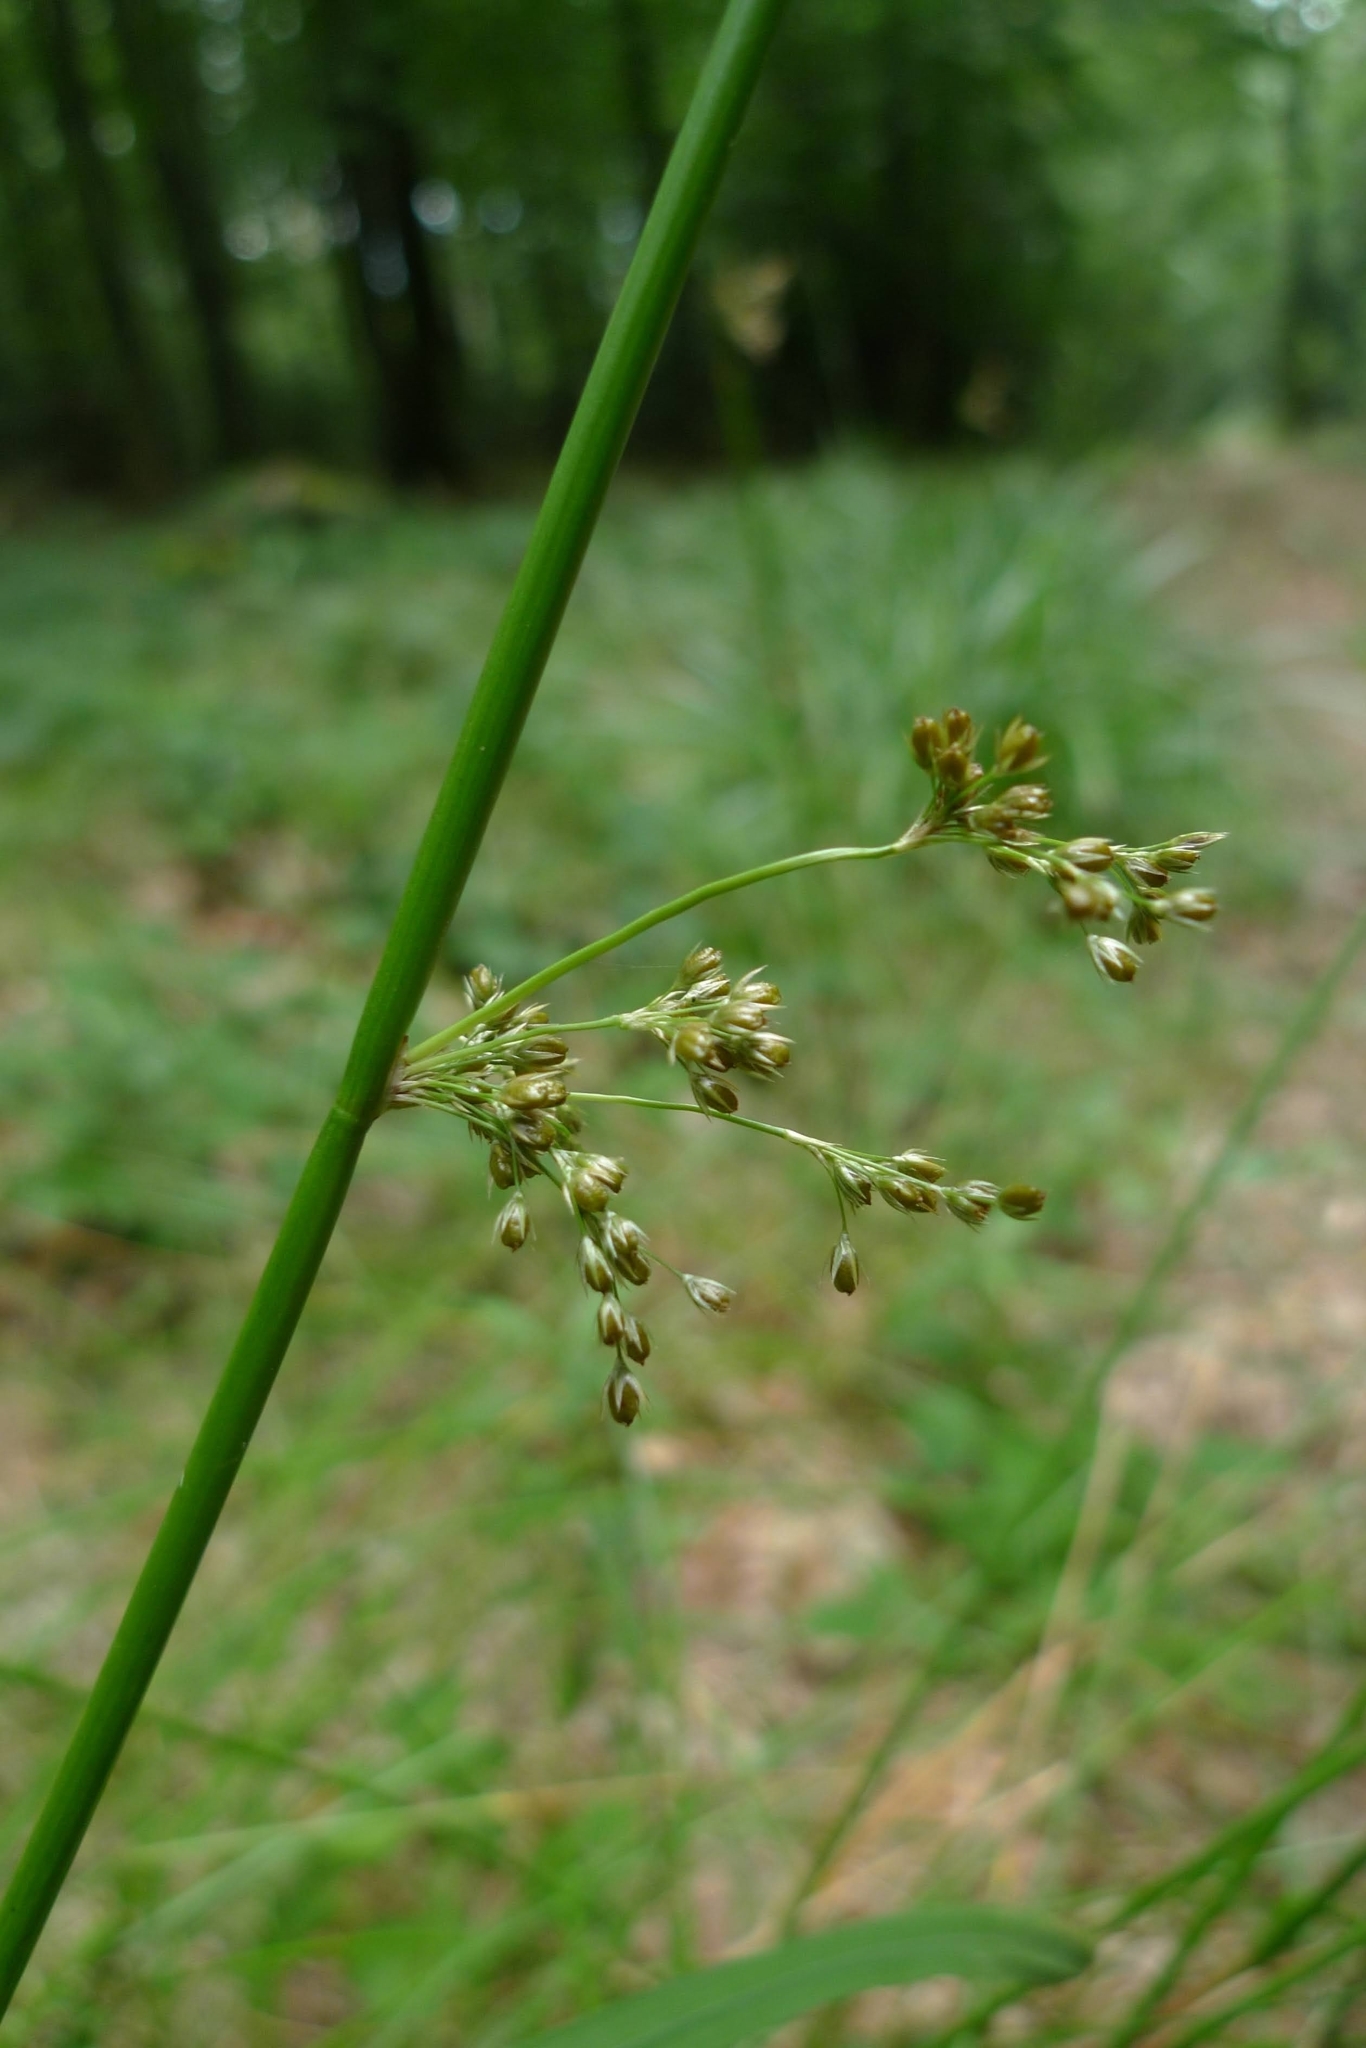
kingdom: Plantae
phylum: Tracheophyta
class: Liliopsida
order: Poales
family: Juncaceae
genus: Juncus
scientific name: Juncus effusus
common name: Soft rush
